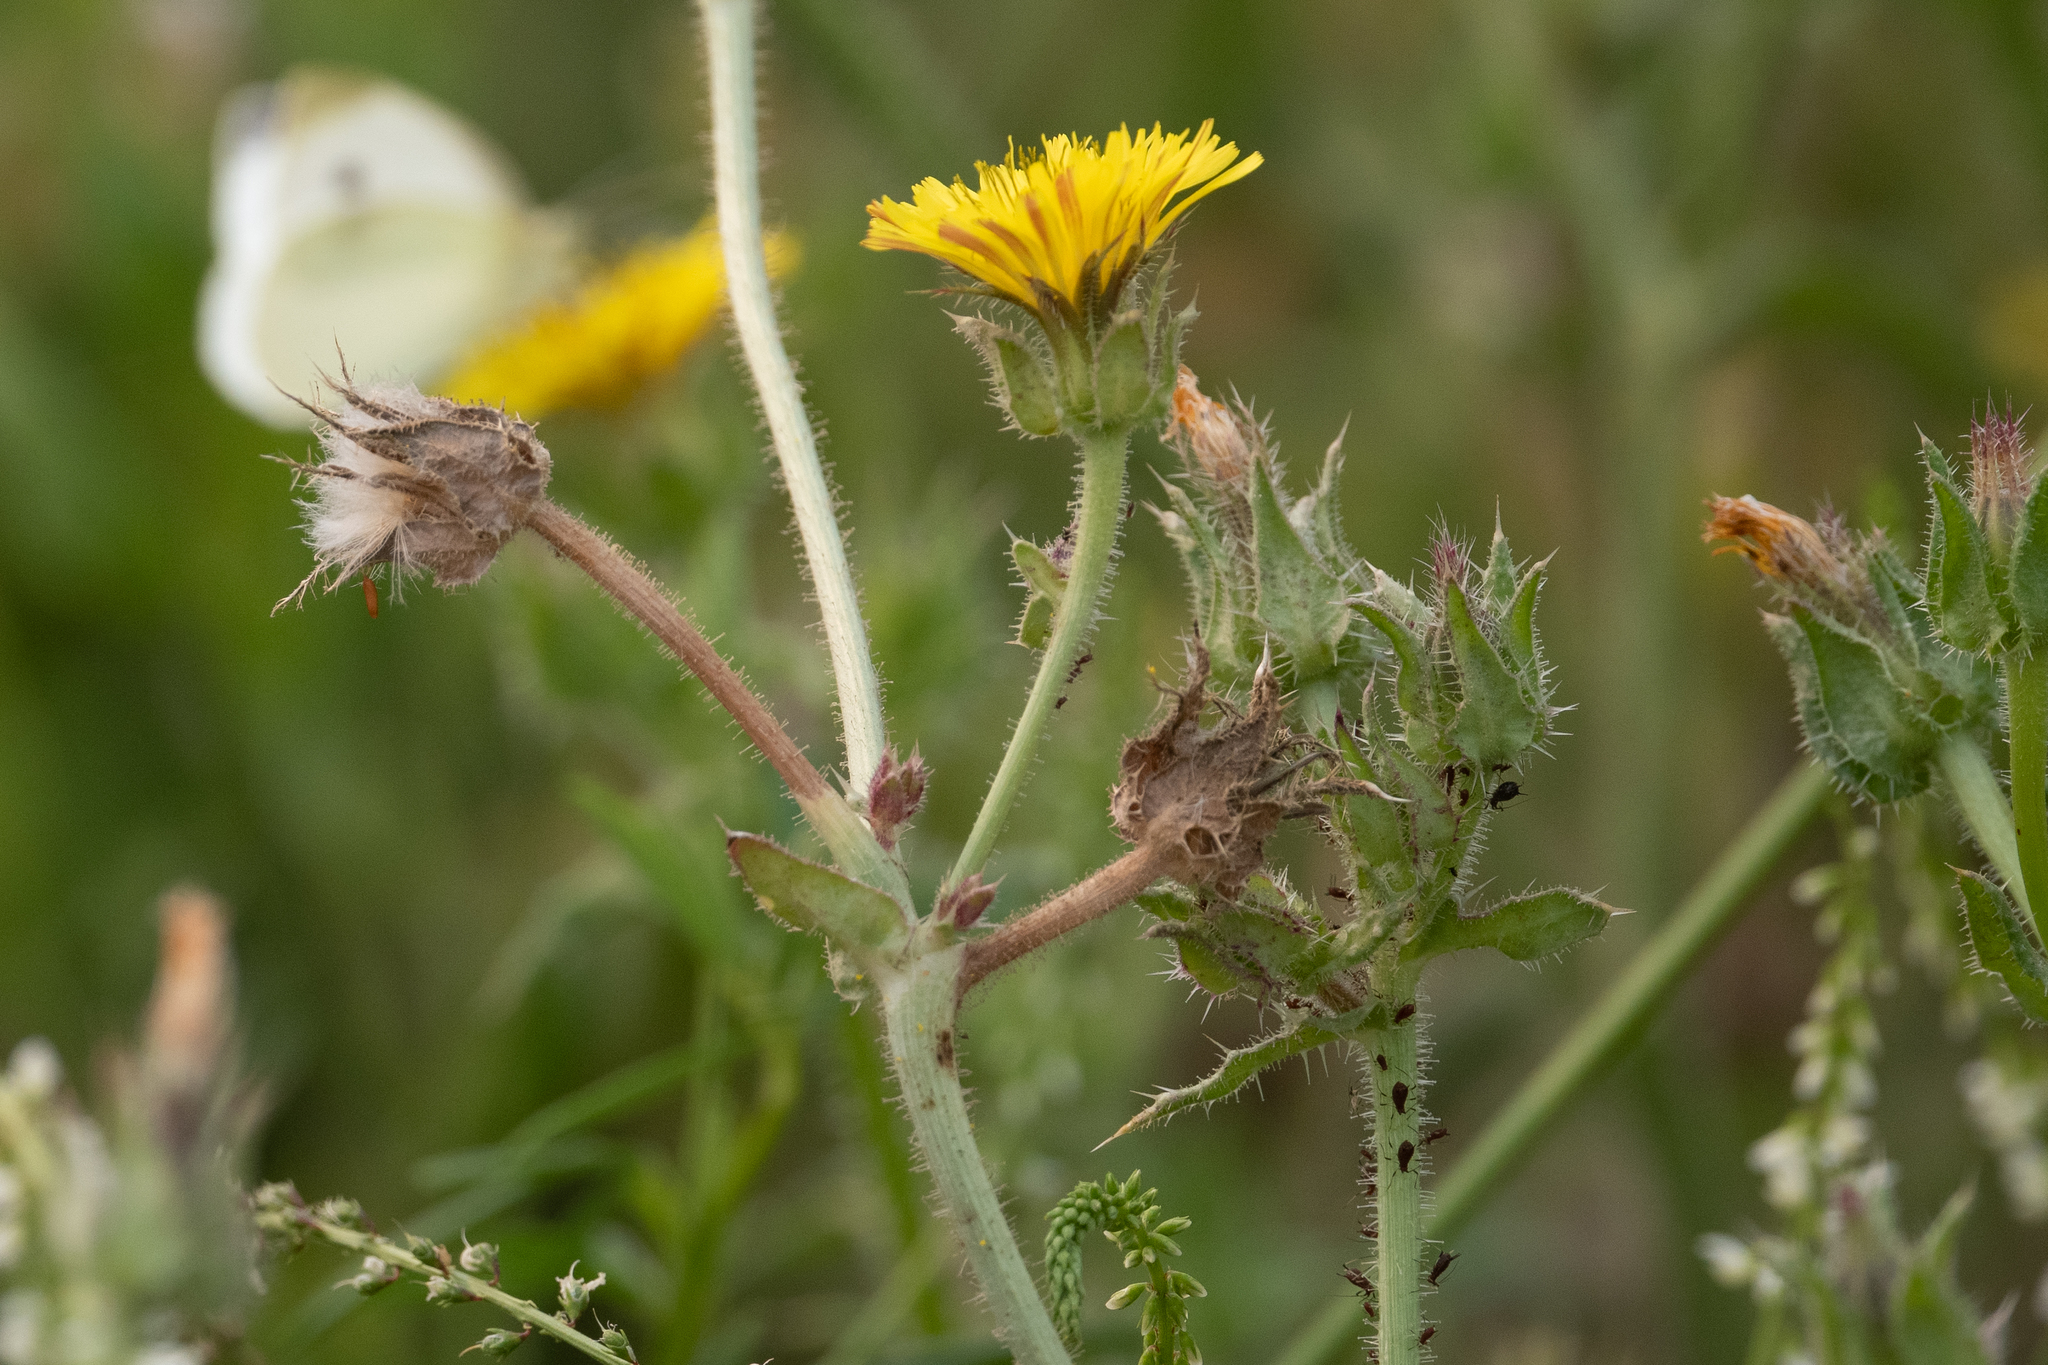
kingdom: Plantae
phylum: Tracheophyta
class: Magnoliopsida
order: Asterales
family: Asteraceae
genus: Helminthotheca
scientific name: Helminthotheca echioides
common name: Ox-tongue
